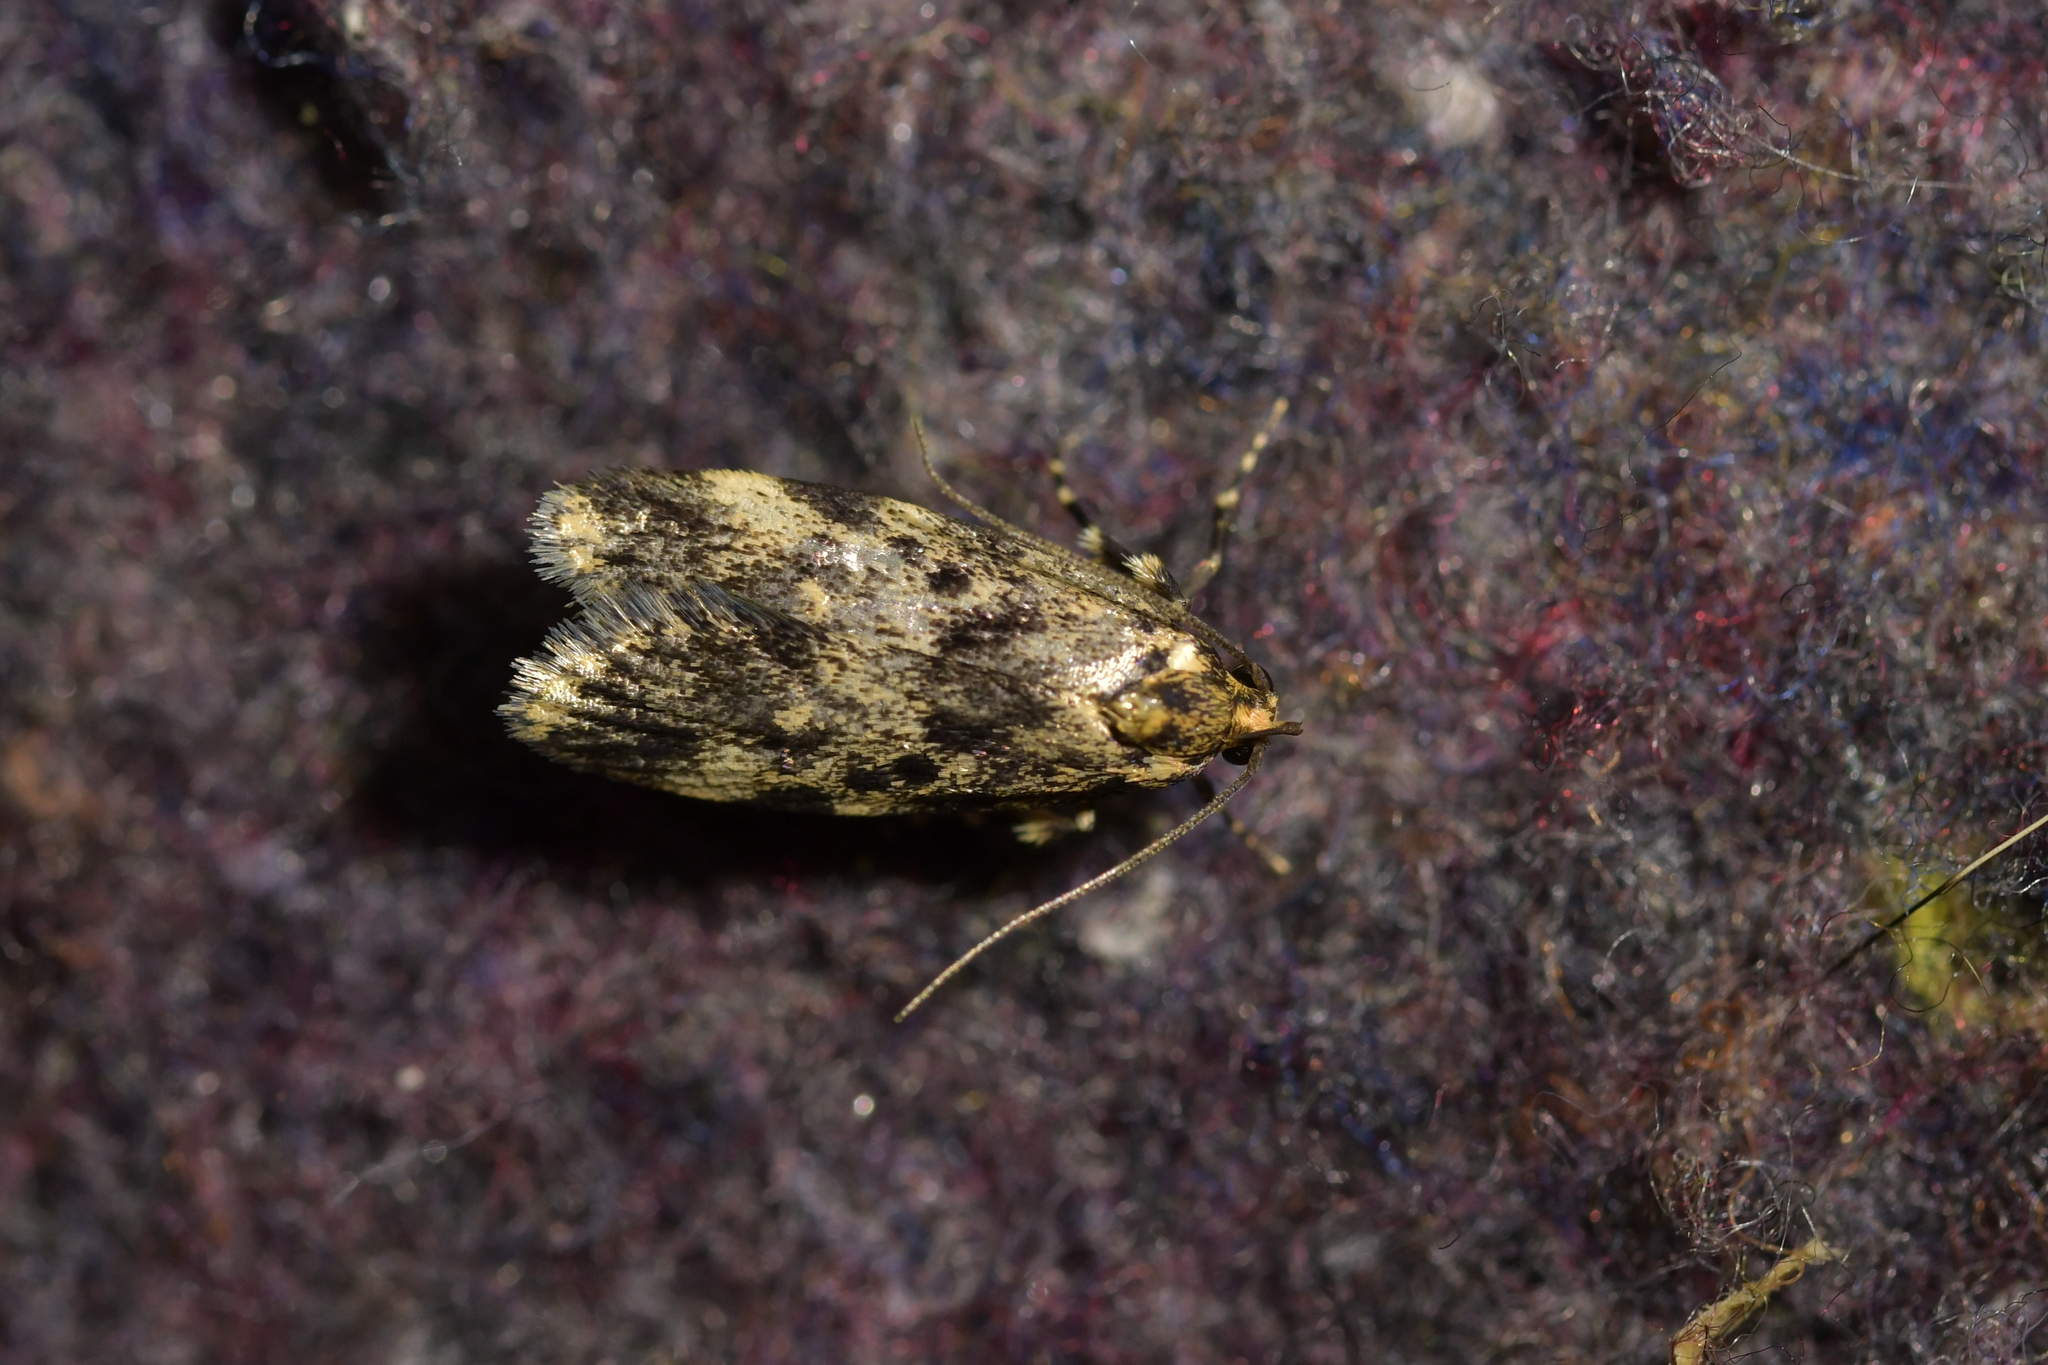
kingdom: Animalia
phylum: Arthropoda
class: Insecta
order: Lepidoptera
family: Oecophoridae
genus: Barea
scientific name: Barea codrella
